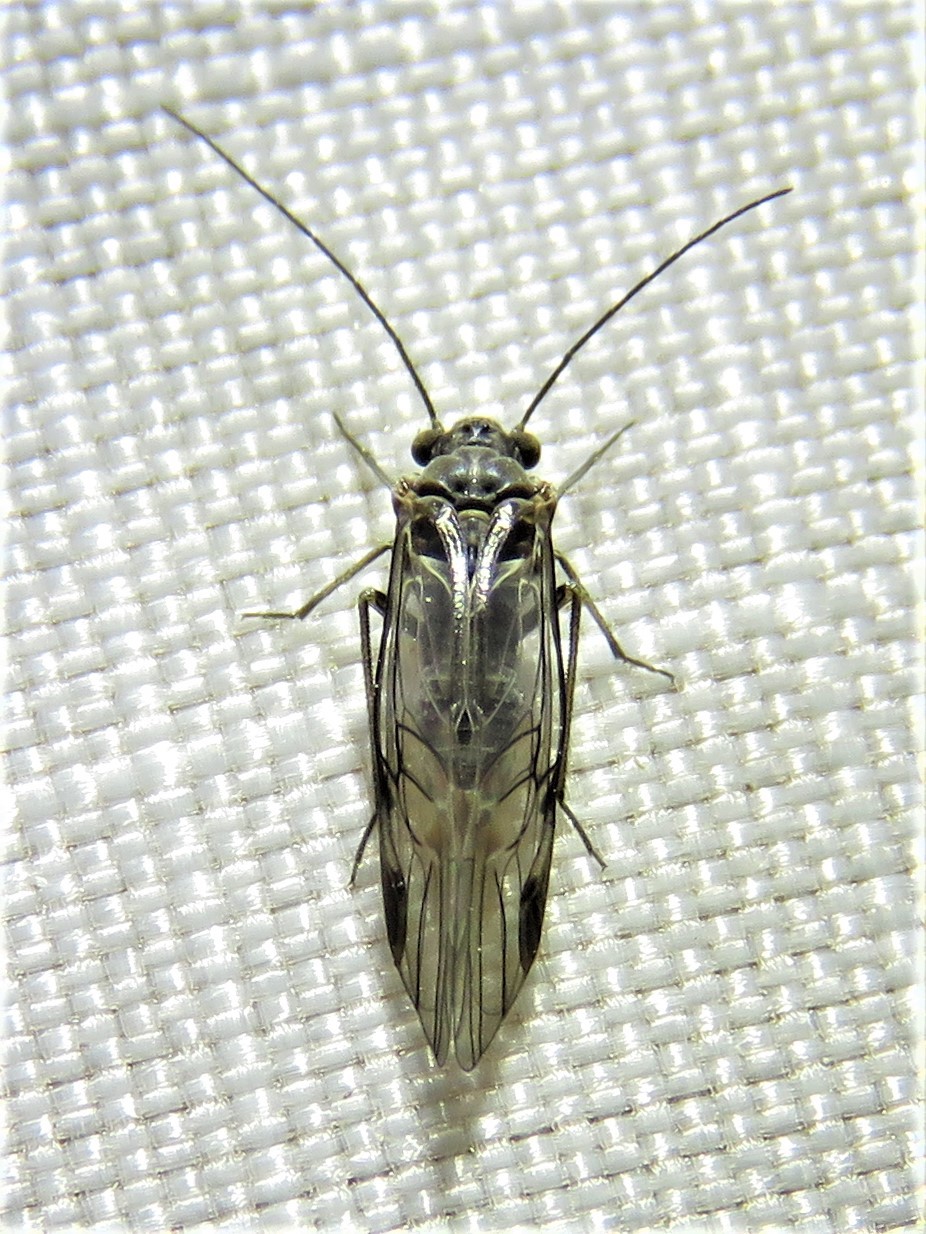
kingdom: Animalia
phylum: Arthropoda
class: Insecta
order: Psocodea
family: Psocidae
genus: Amphigerontia
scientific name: Amphigerontia montivaga
